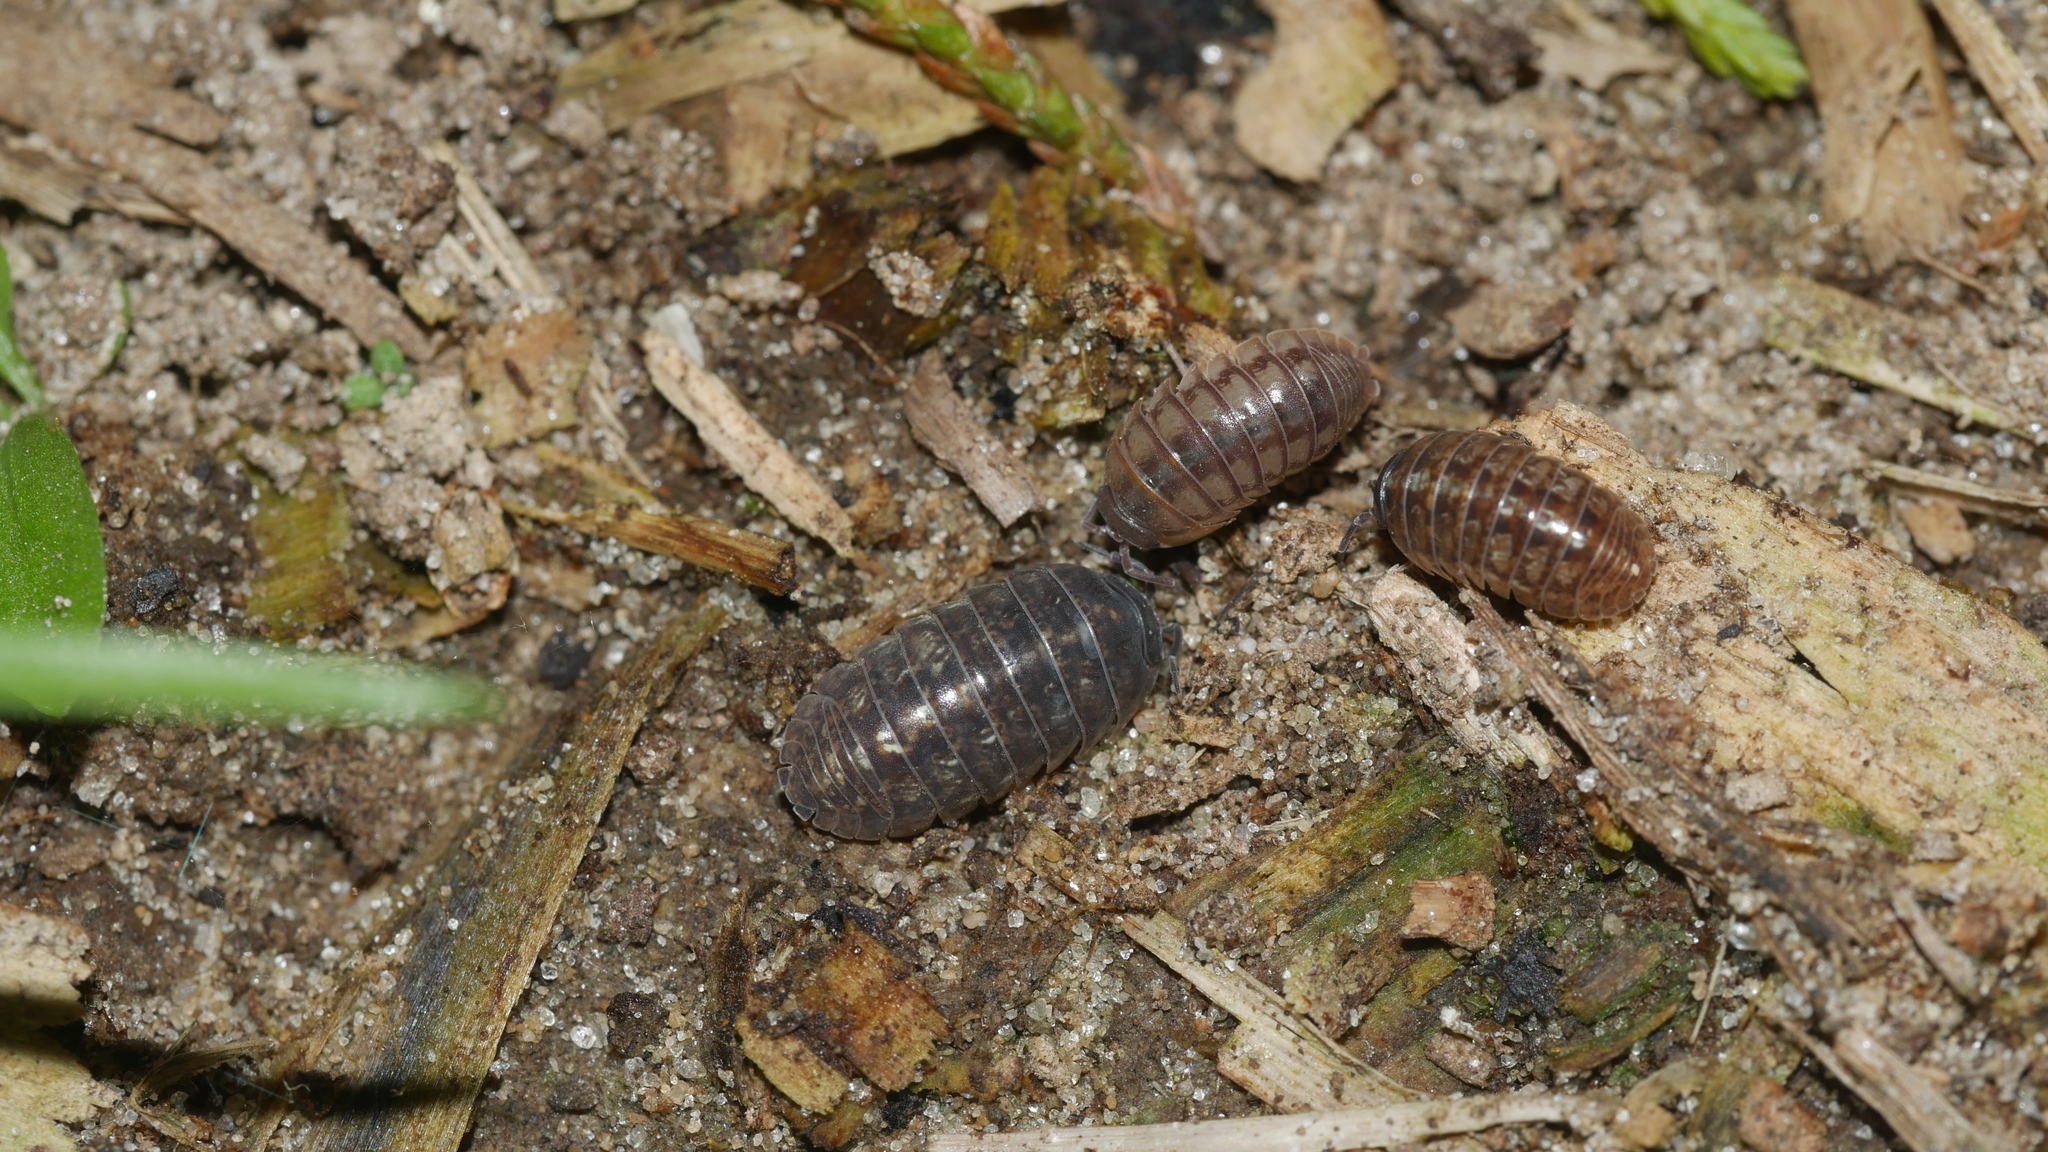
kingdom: Animalia
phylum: Arthropoda
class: Malacostraca
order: Isopoda
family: Armadillidiidae
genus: Armadillidium
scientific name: Armadillidium vulgare
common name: Common pill woodlouse
